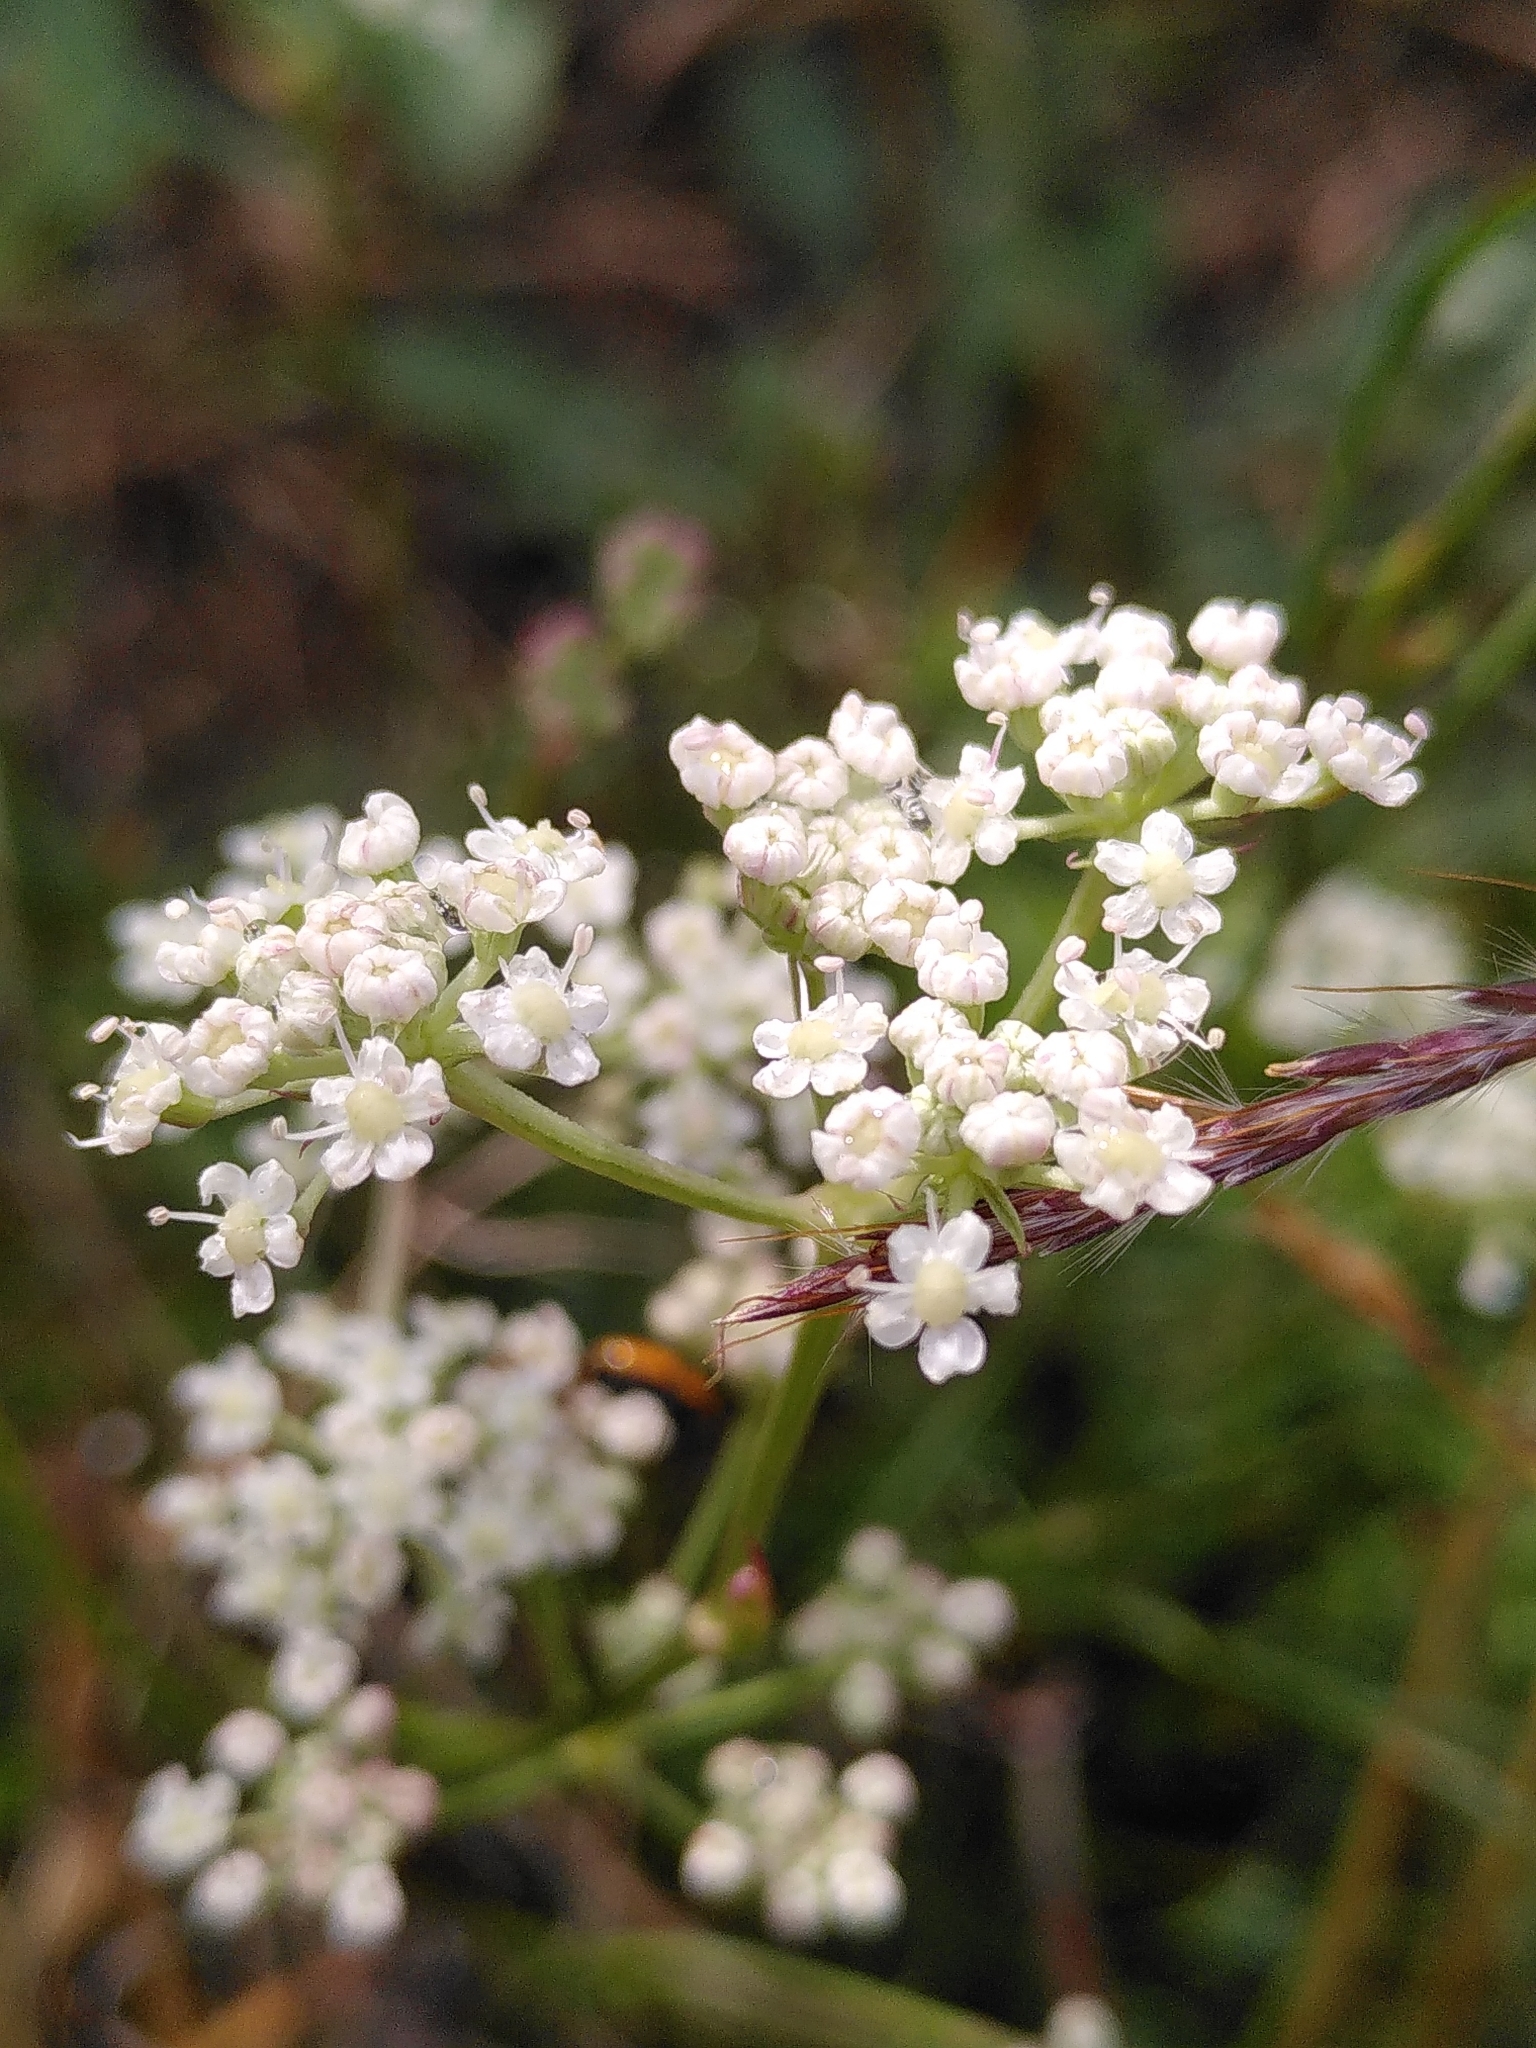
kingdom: Plantae
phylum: Tracheophyta
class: Magnoliopsida
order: Apiales
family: Apiaceae
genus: Seseli
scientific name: Seseli montanum
